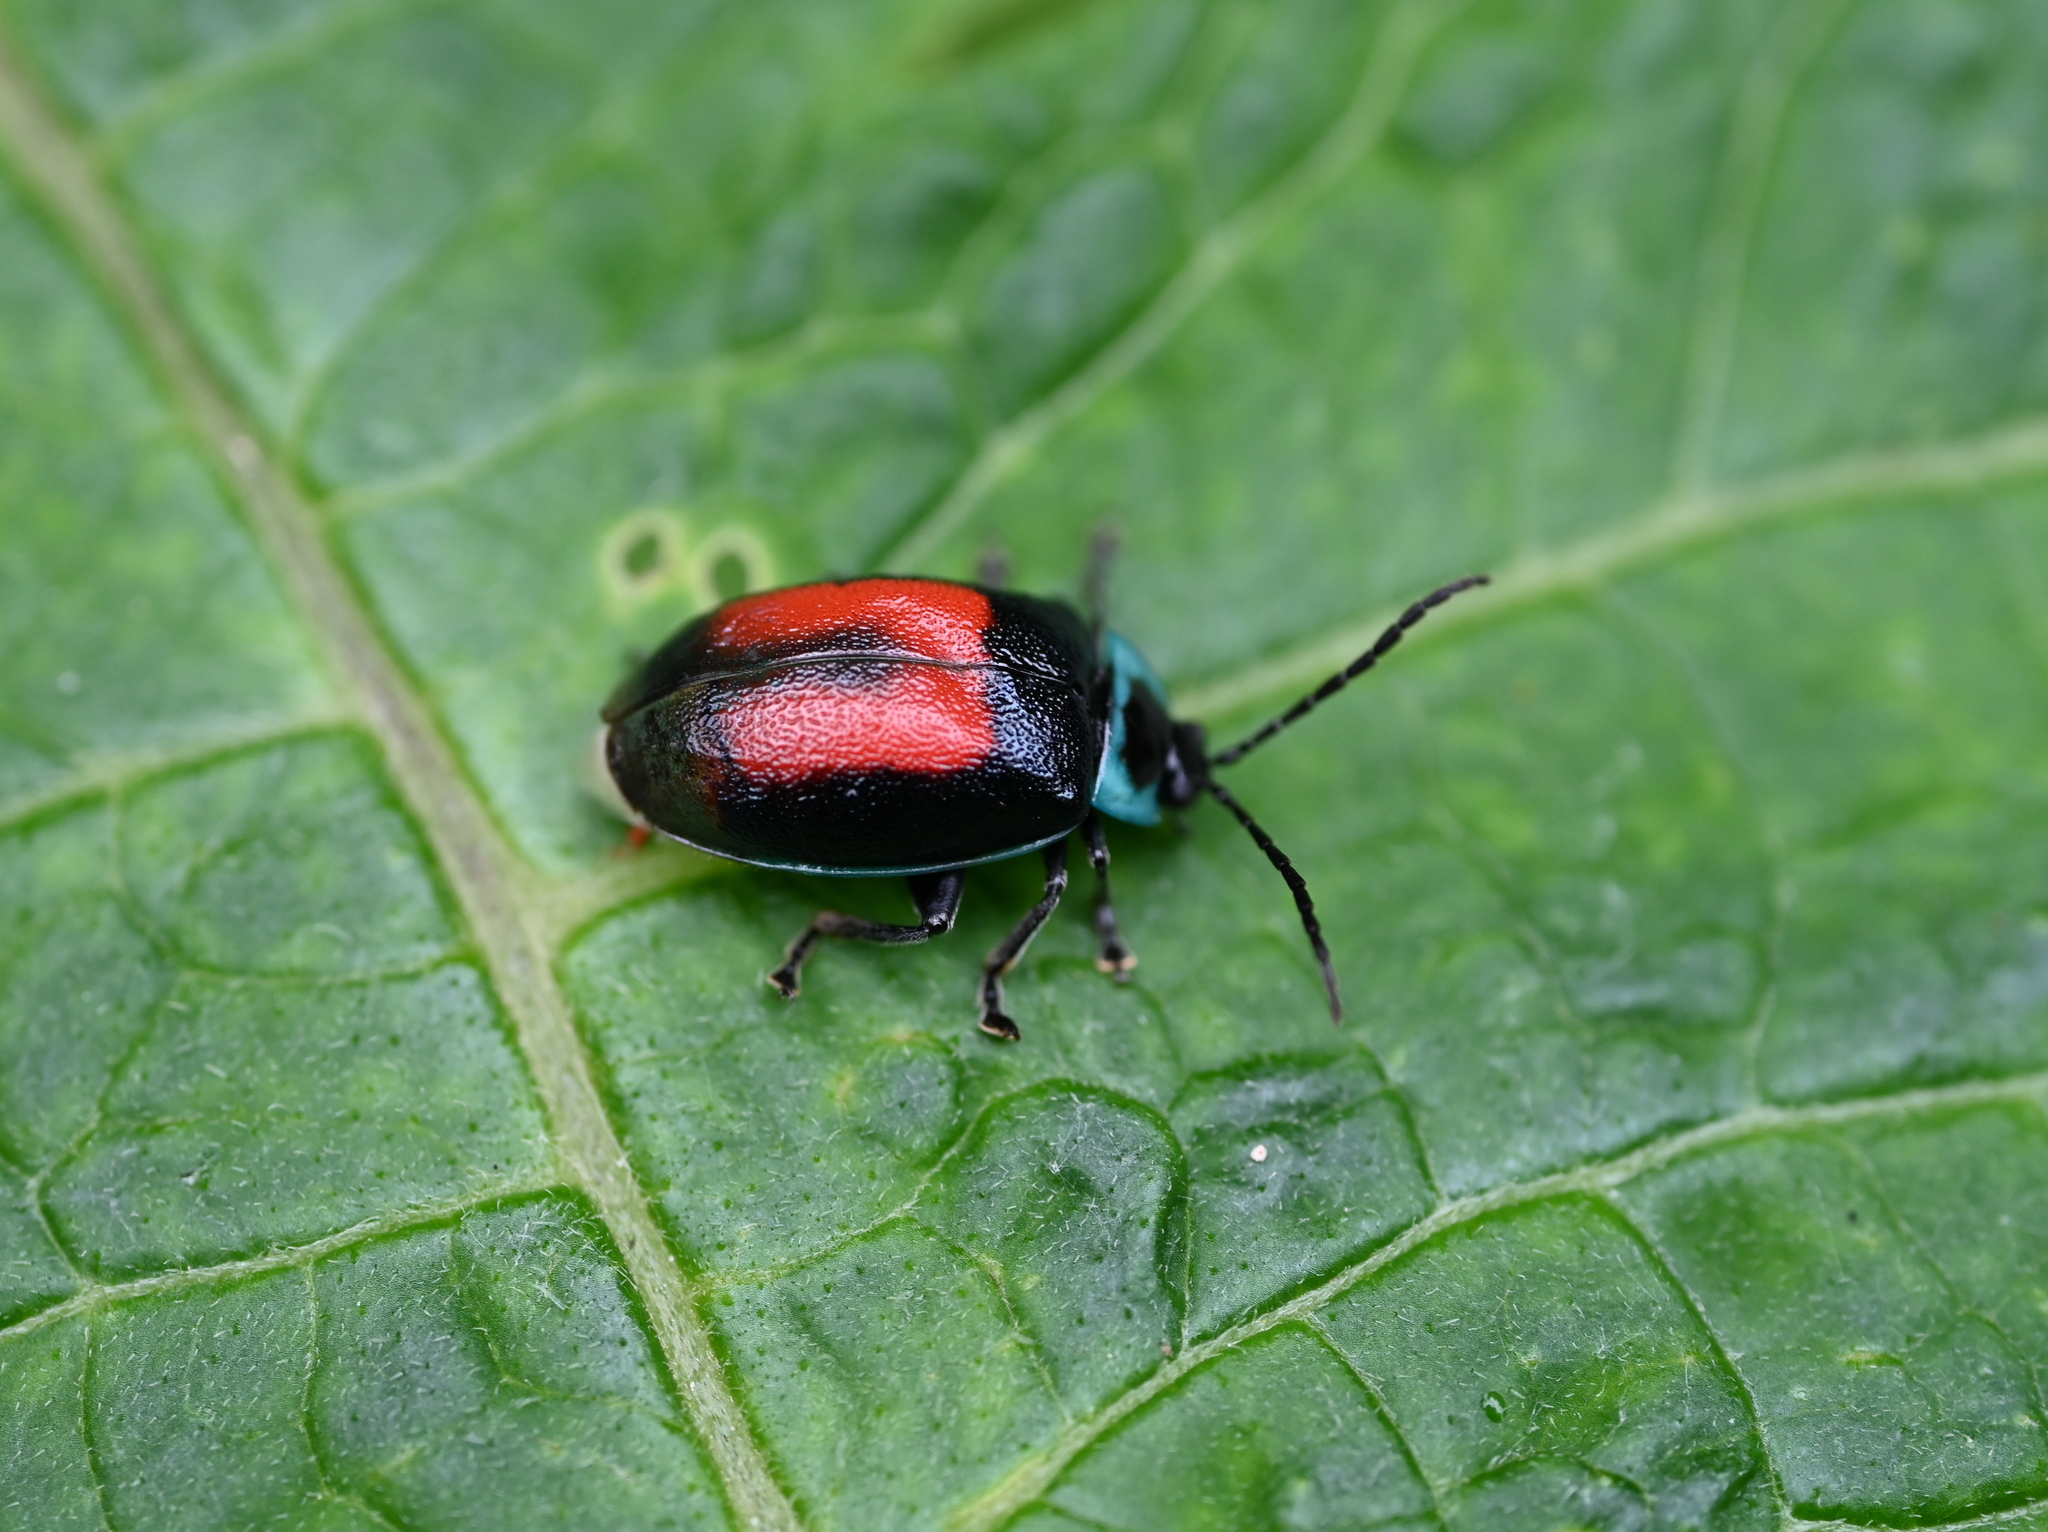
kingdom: Animalia
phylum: Arthropoda
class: Insecta
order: Coleoptera
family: Chrysomelidae
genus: Aspicela
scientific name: Aspicela
